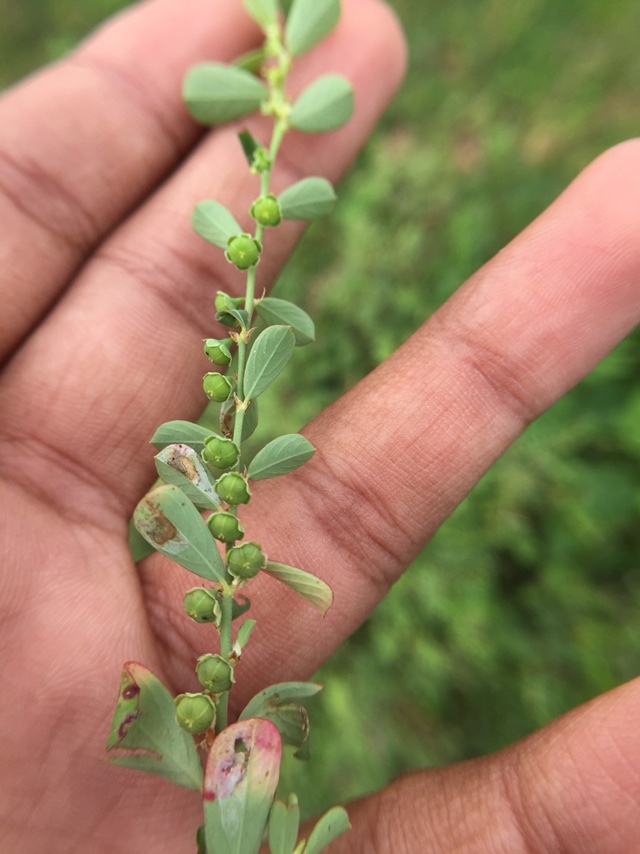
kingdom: Plantae
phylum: Tracheophyta
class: Magnoliopsida
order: Malpighiales
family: Phyllanthaceae
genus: Phyllanthus
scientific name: Phyllanthus maderaspatensis
